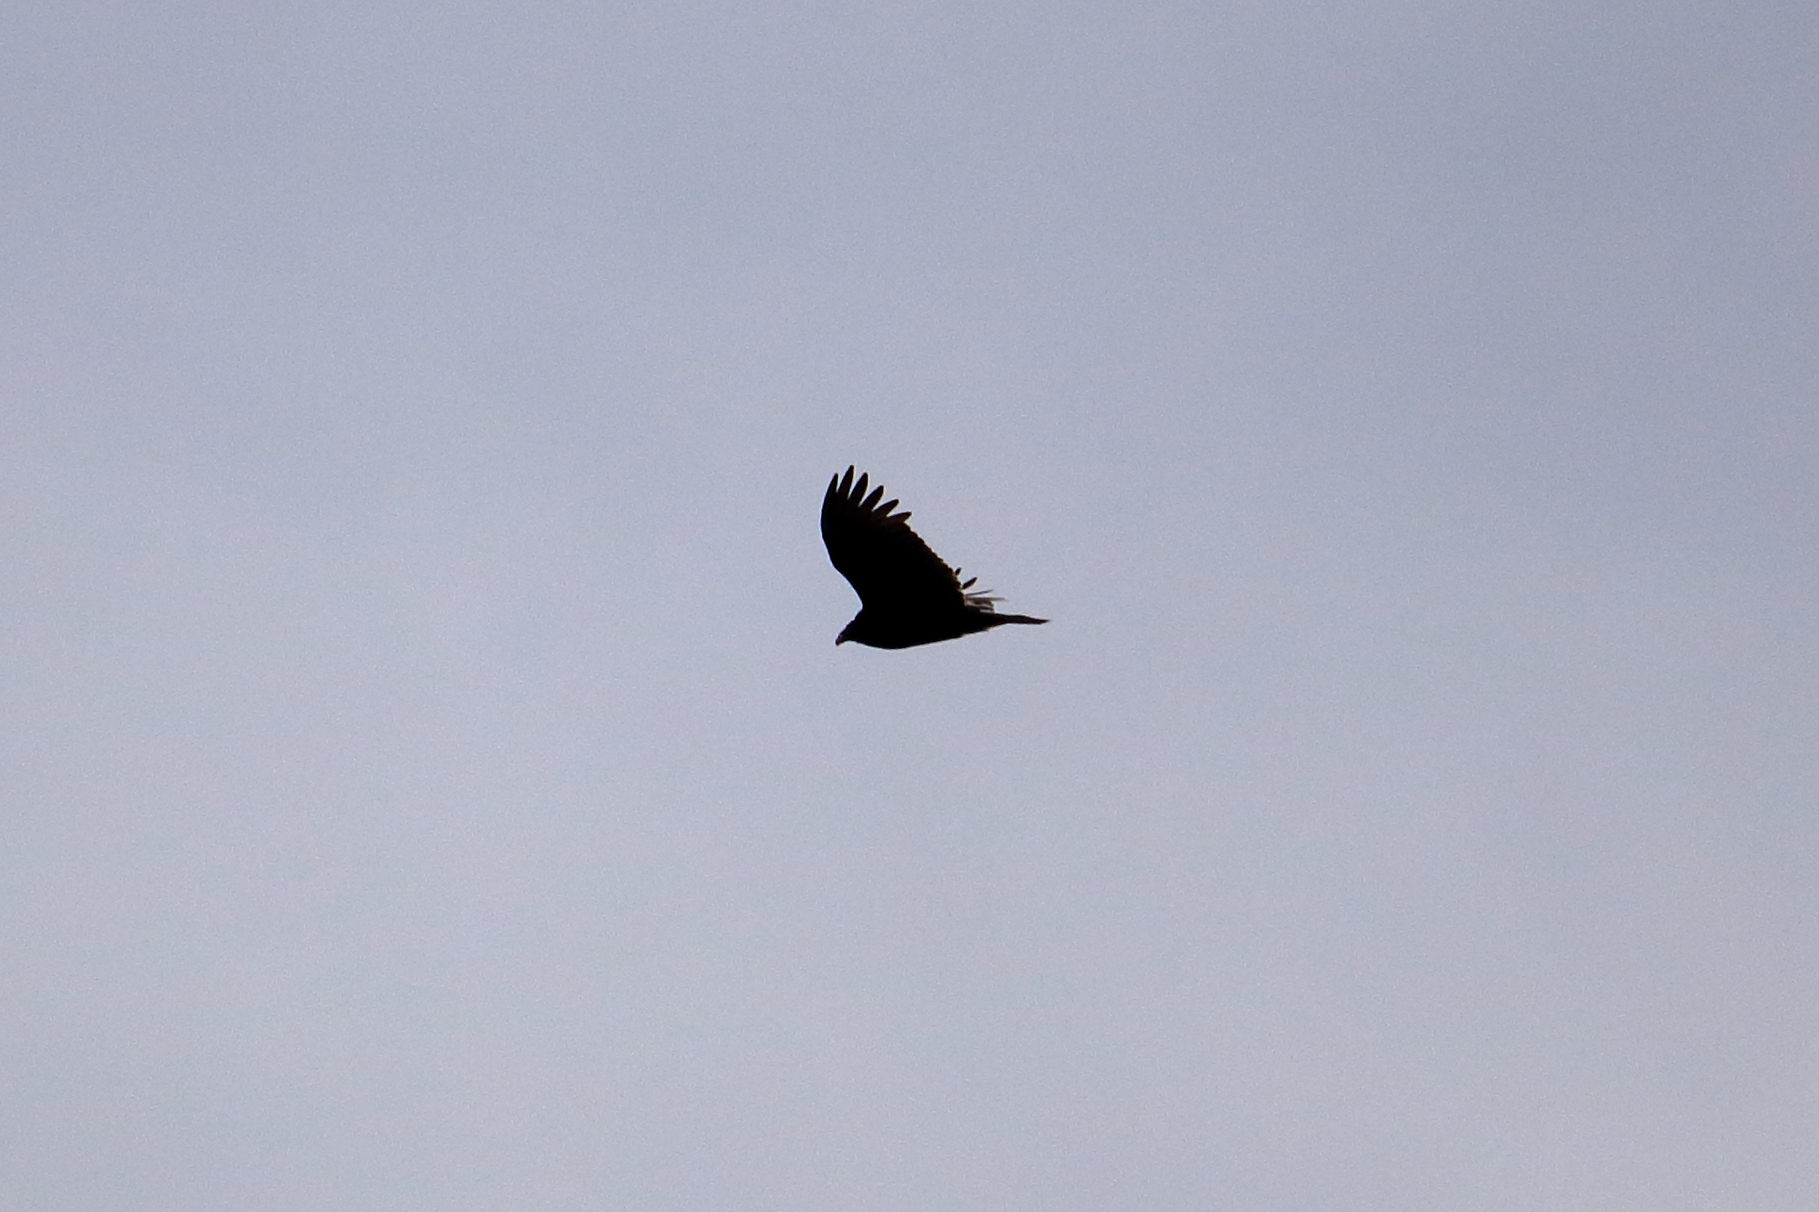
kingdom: Animalia
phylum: Chordata
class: Aves
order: Accipitriformes
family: Cathartidae
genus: Cathartes
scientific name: Cathartes aura
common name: Turkey vulture
